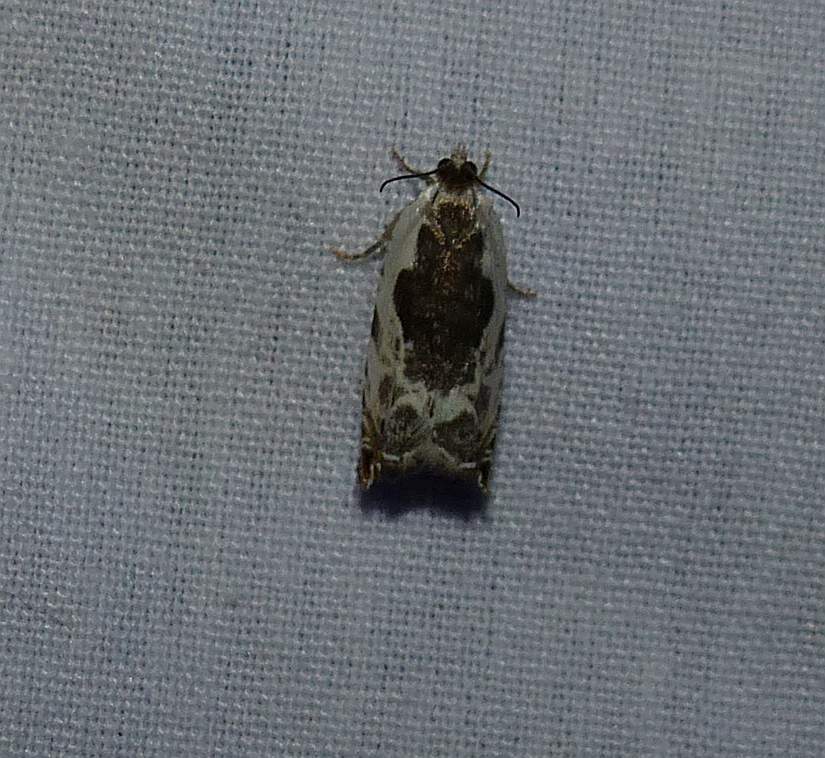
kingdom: Animalia
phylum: Arthropoda
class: Insecta
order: Lepidoptera
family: Tortricidae
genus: Ancylis
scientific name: Ancylis nubeculana
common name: Little cloud ancylis moth
